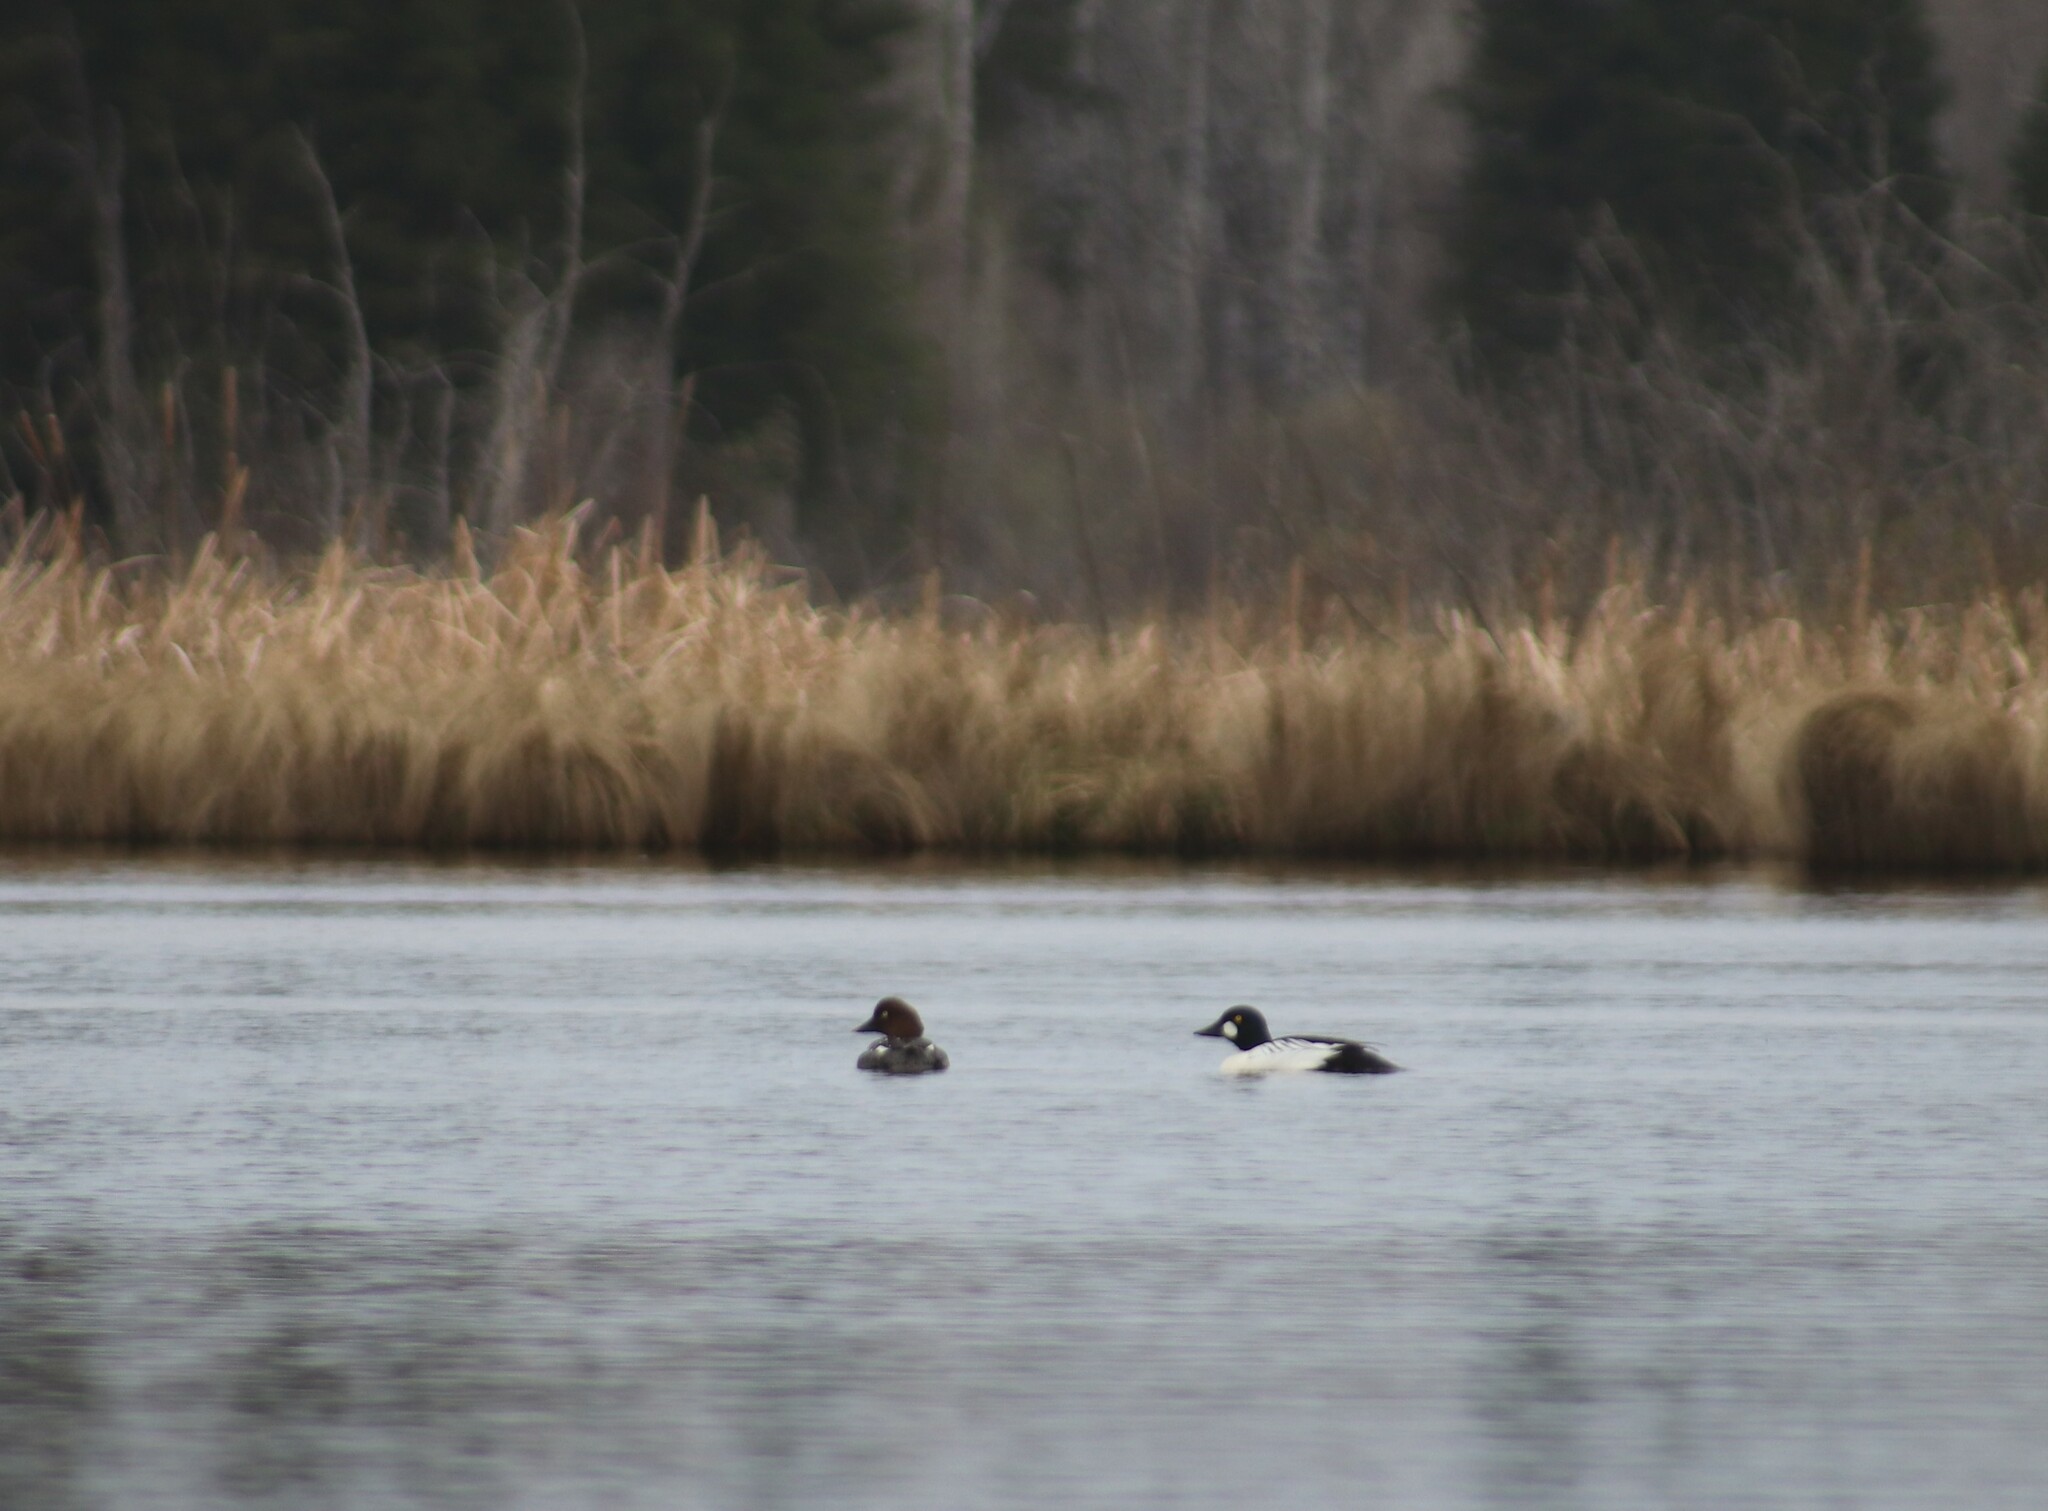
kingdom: Animalia
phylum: Chordata
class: Aves
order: Anseriformes
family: Anatidae
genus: Bucephala
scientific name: Bucephala clangula
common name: Common goldeneye
